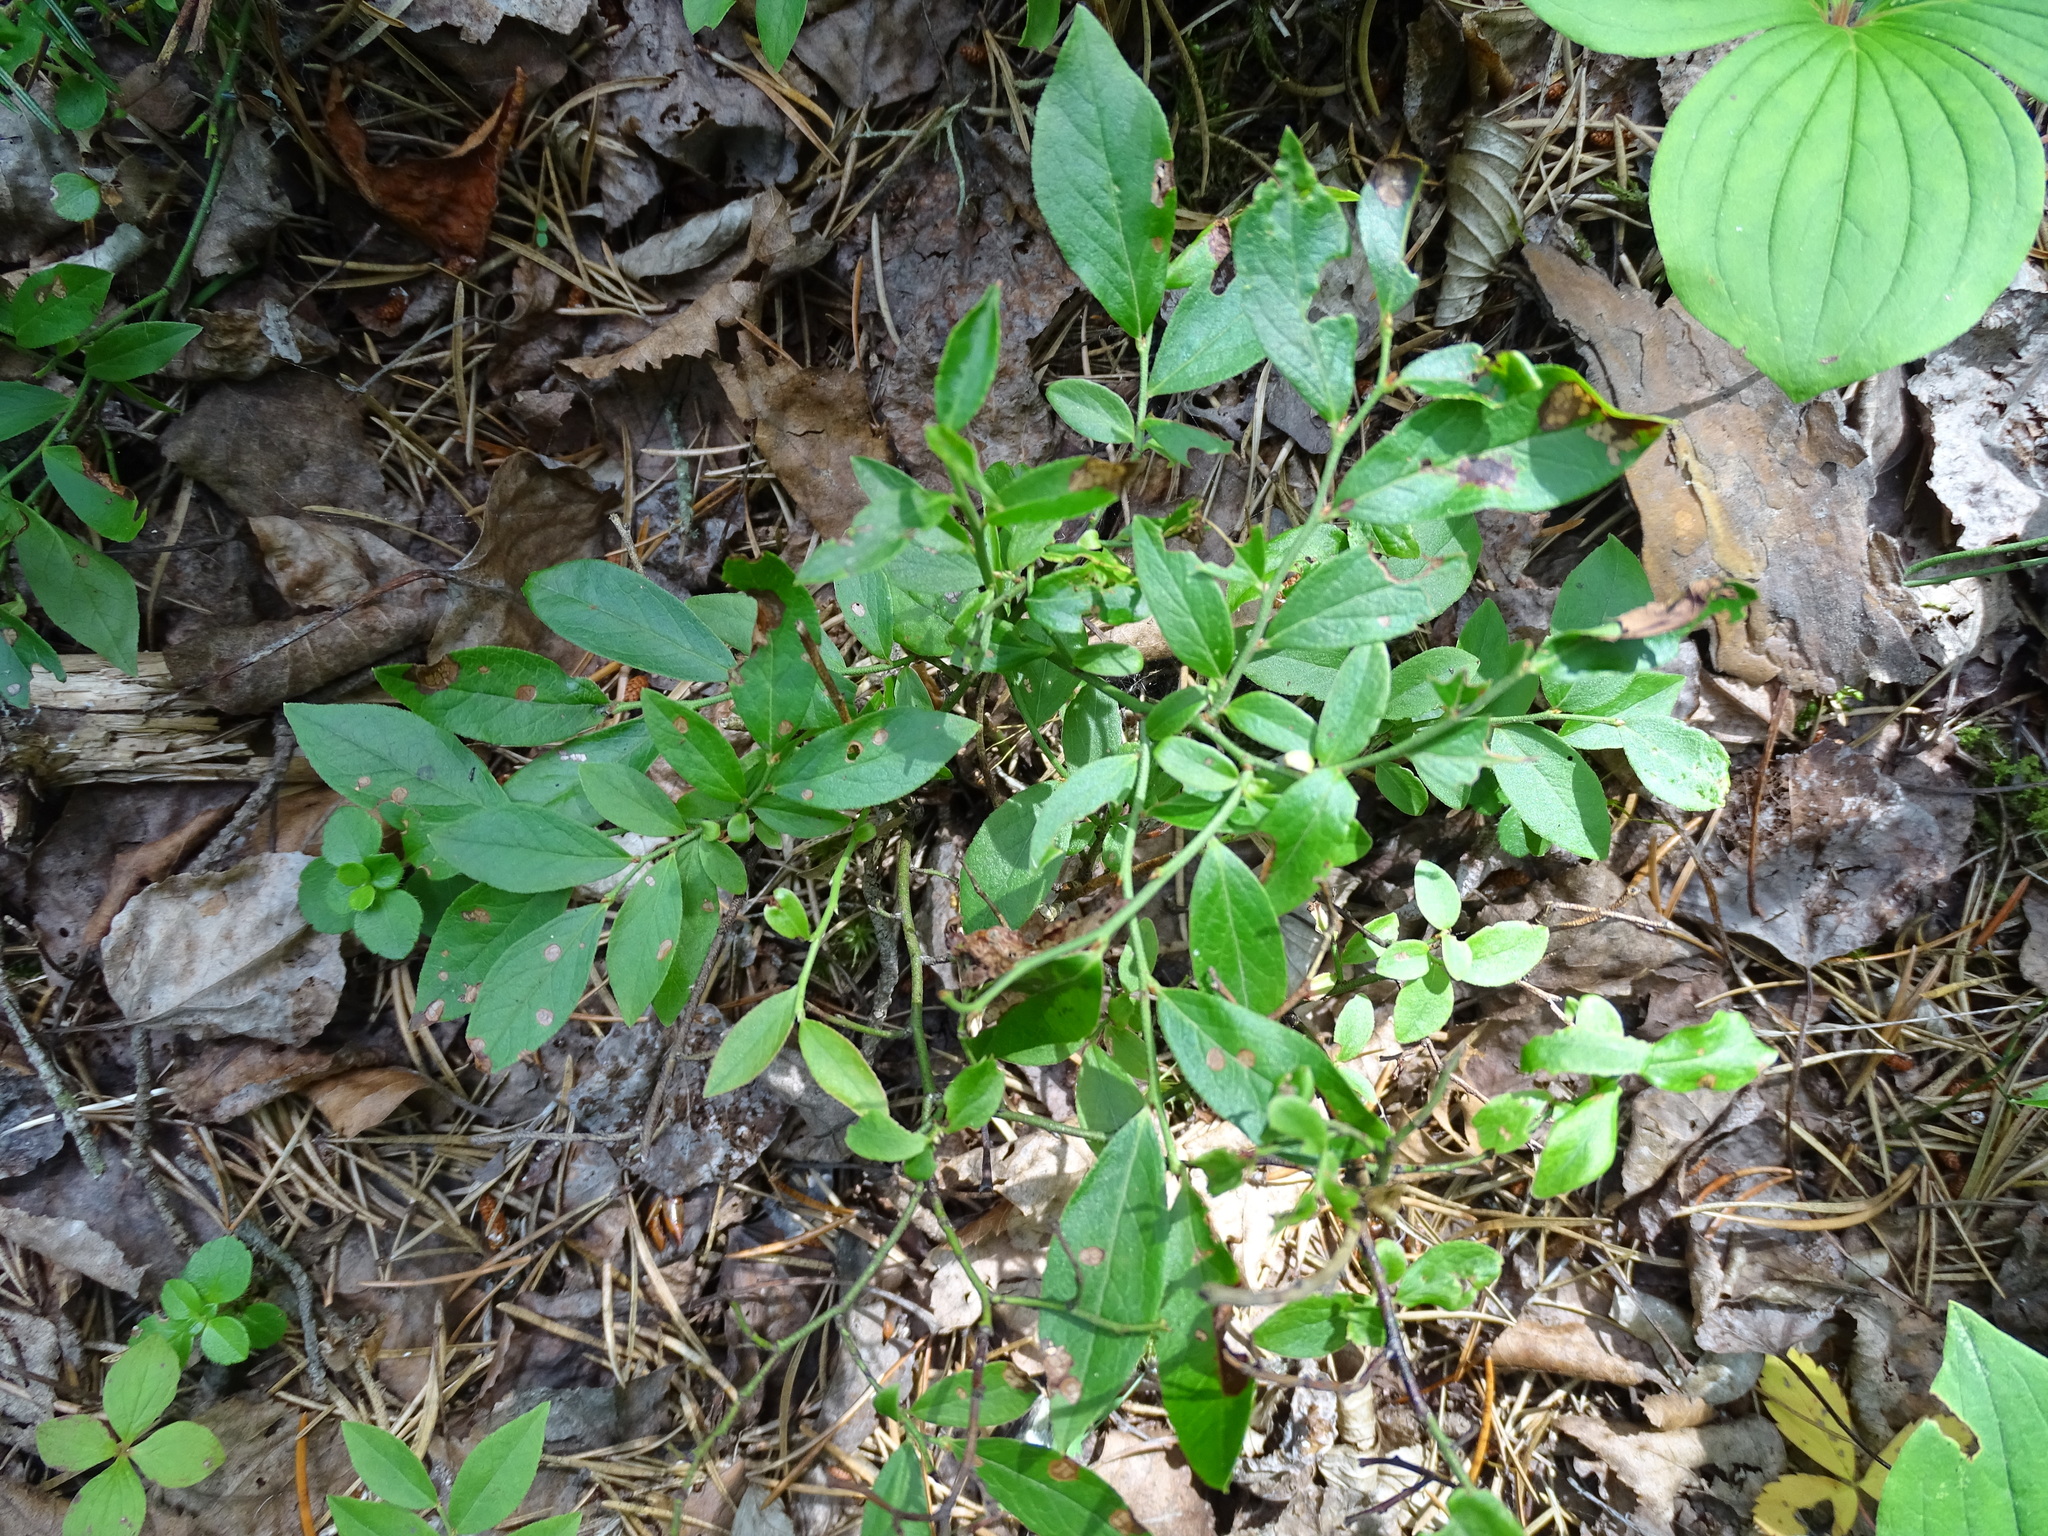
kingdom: Plantae
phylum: Tracheophyta
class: Magnoliopsida
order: Ericales
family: Ericaceae
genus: Vaccinium
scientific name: Vaccinium angustifolium
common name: Early lowbush blueberry
